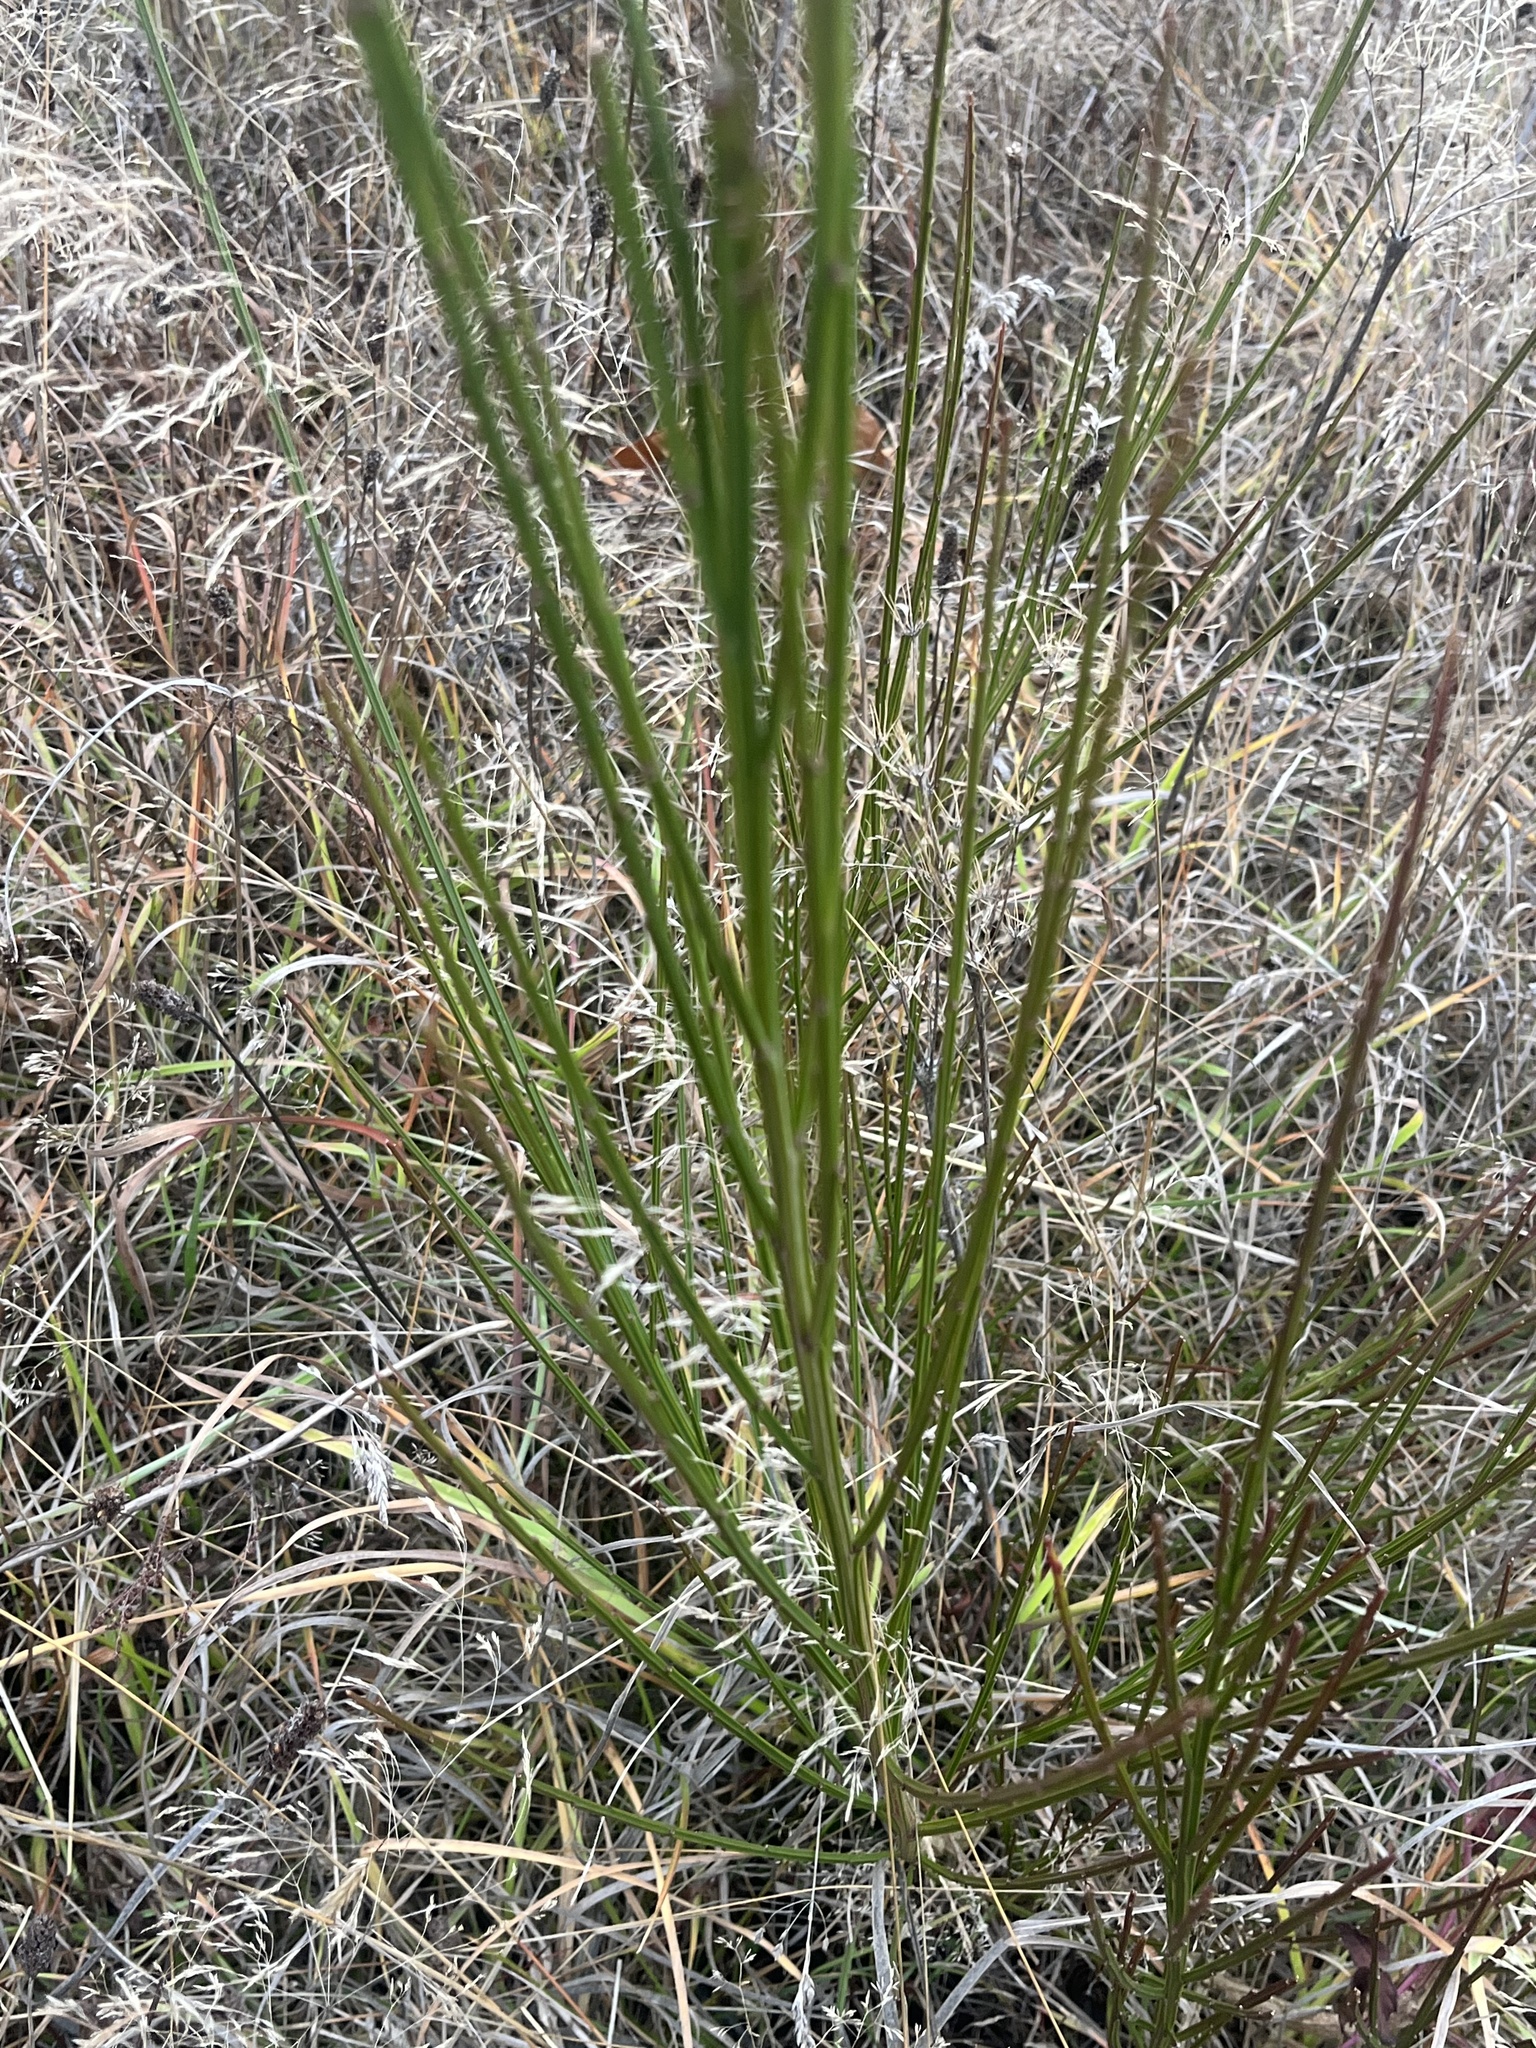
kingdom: Plantae
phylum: Tracheophyta
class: Magnoliopsida
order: Fabales
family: Fabaceae
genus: Cytisus
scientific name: Cytisus scoparius
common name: Scotch broom
